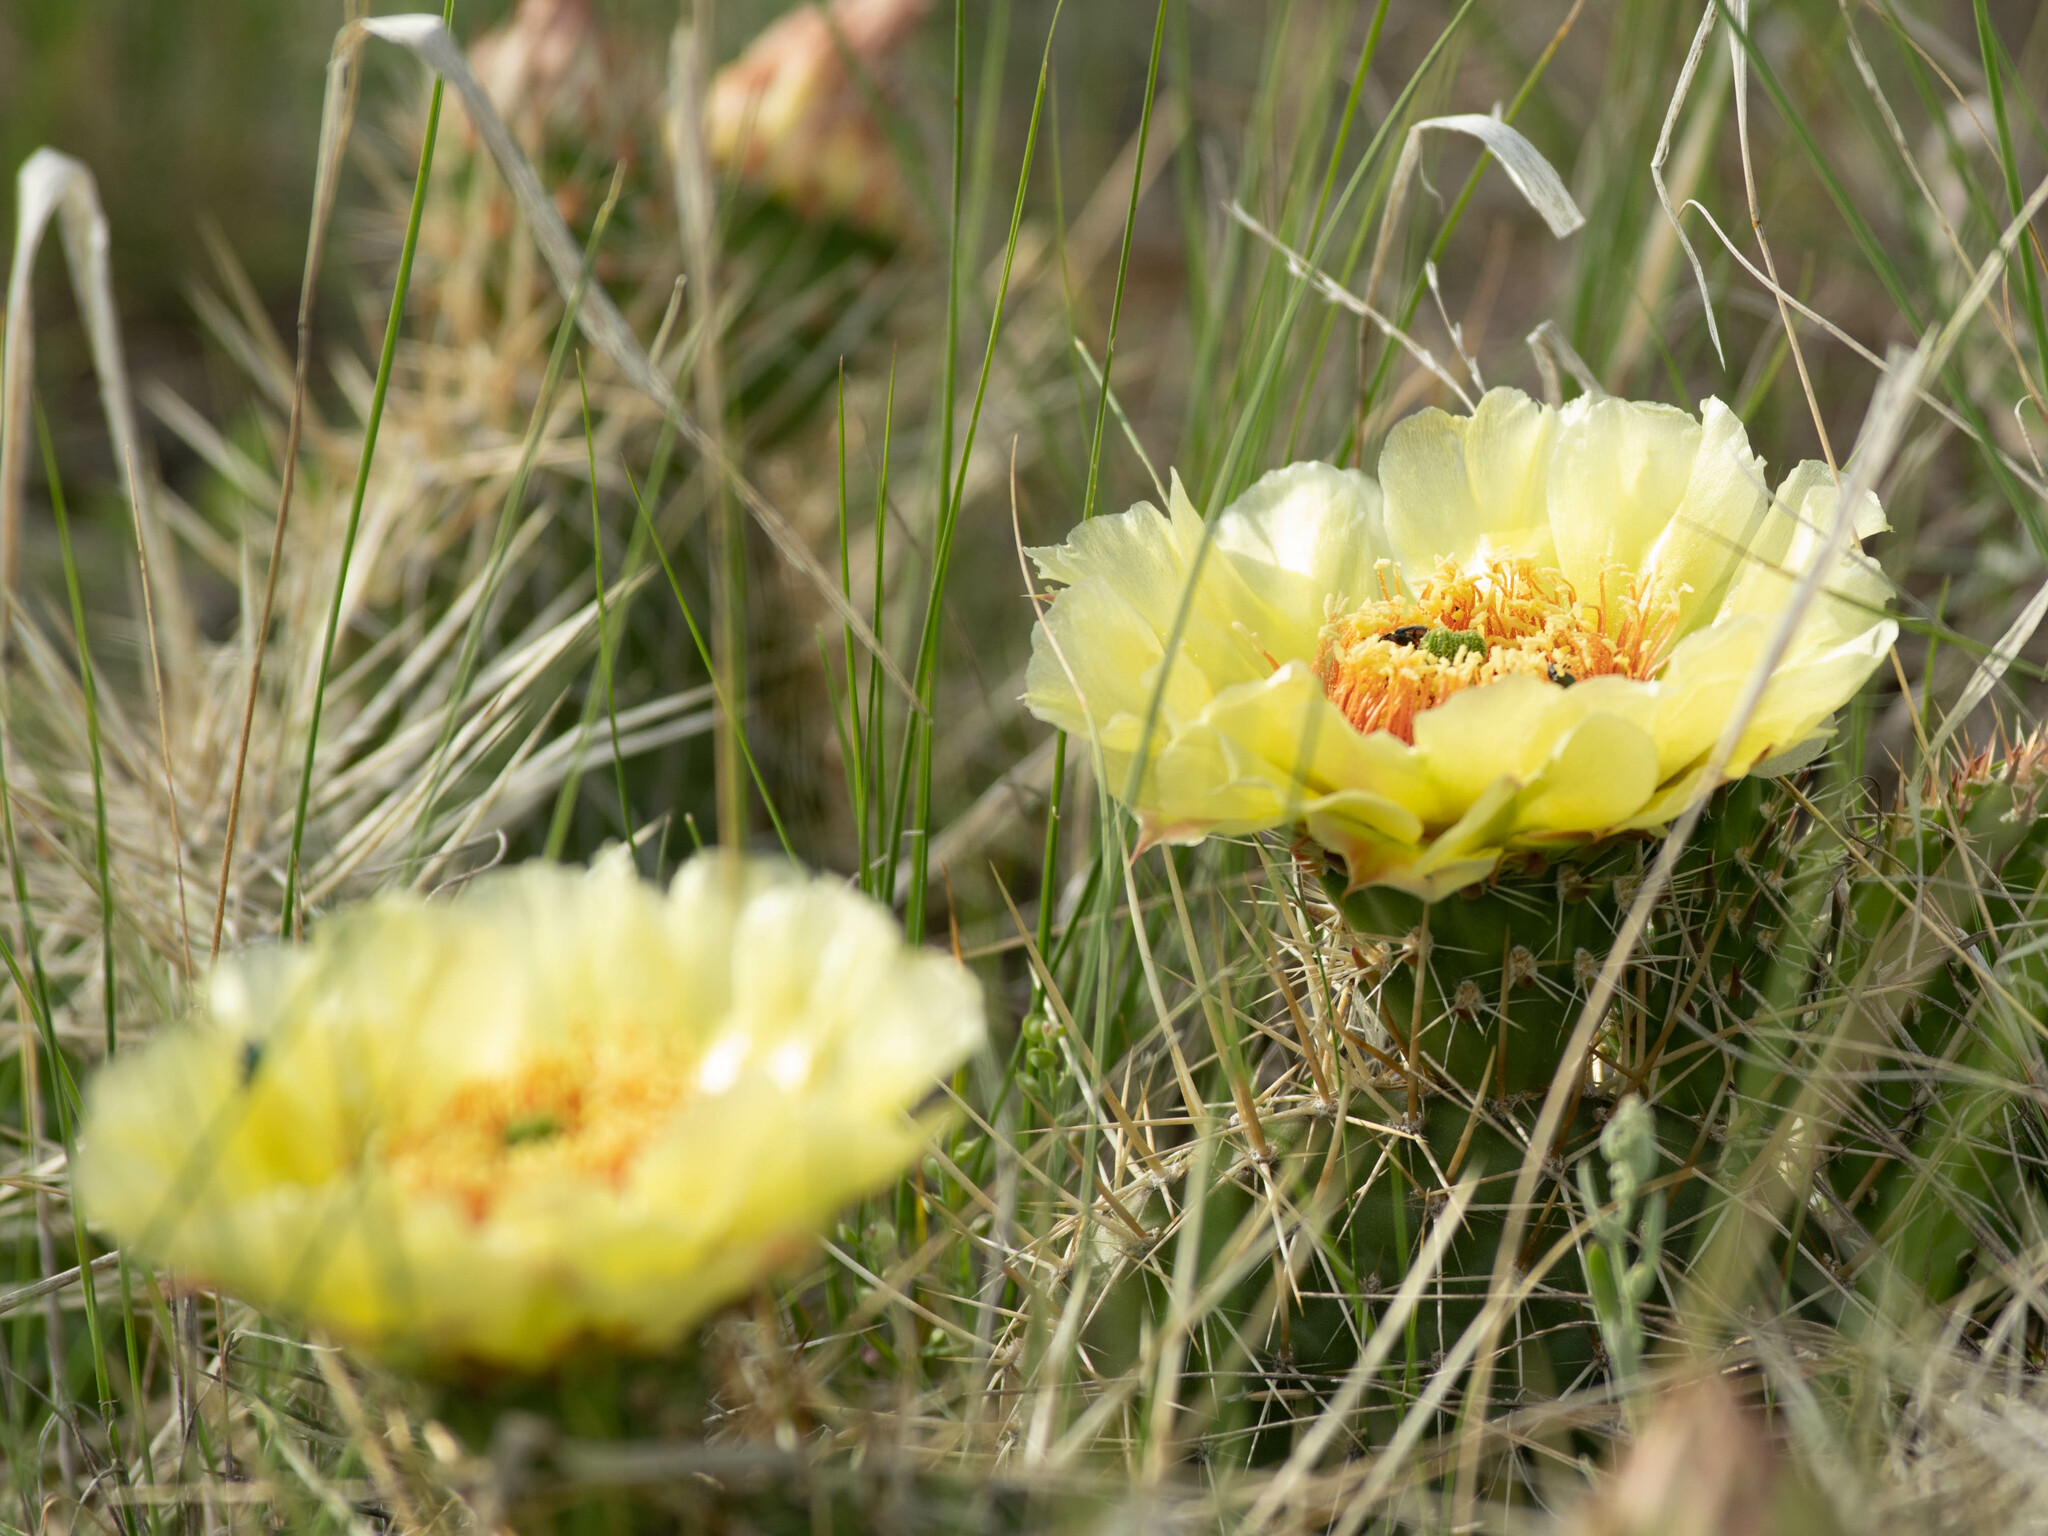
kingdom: Plantae
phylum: Tracheophyta
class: Magnoliopsida
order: Caryophyllales
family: Cactaceae
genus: Opuntia
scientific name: Opuntia polyacantha
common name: Plains prickly-pear
